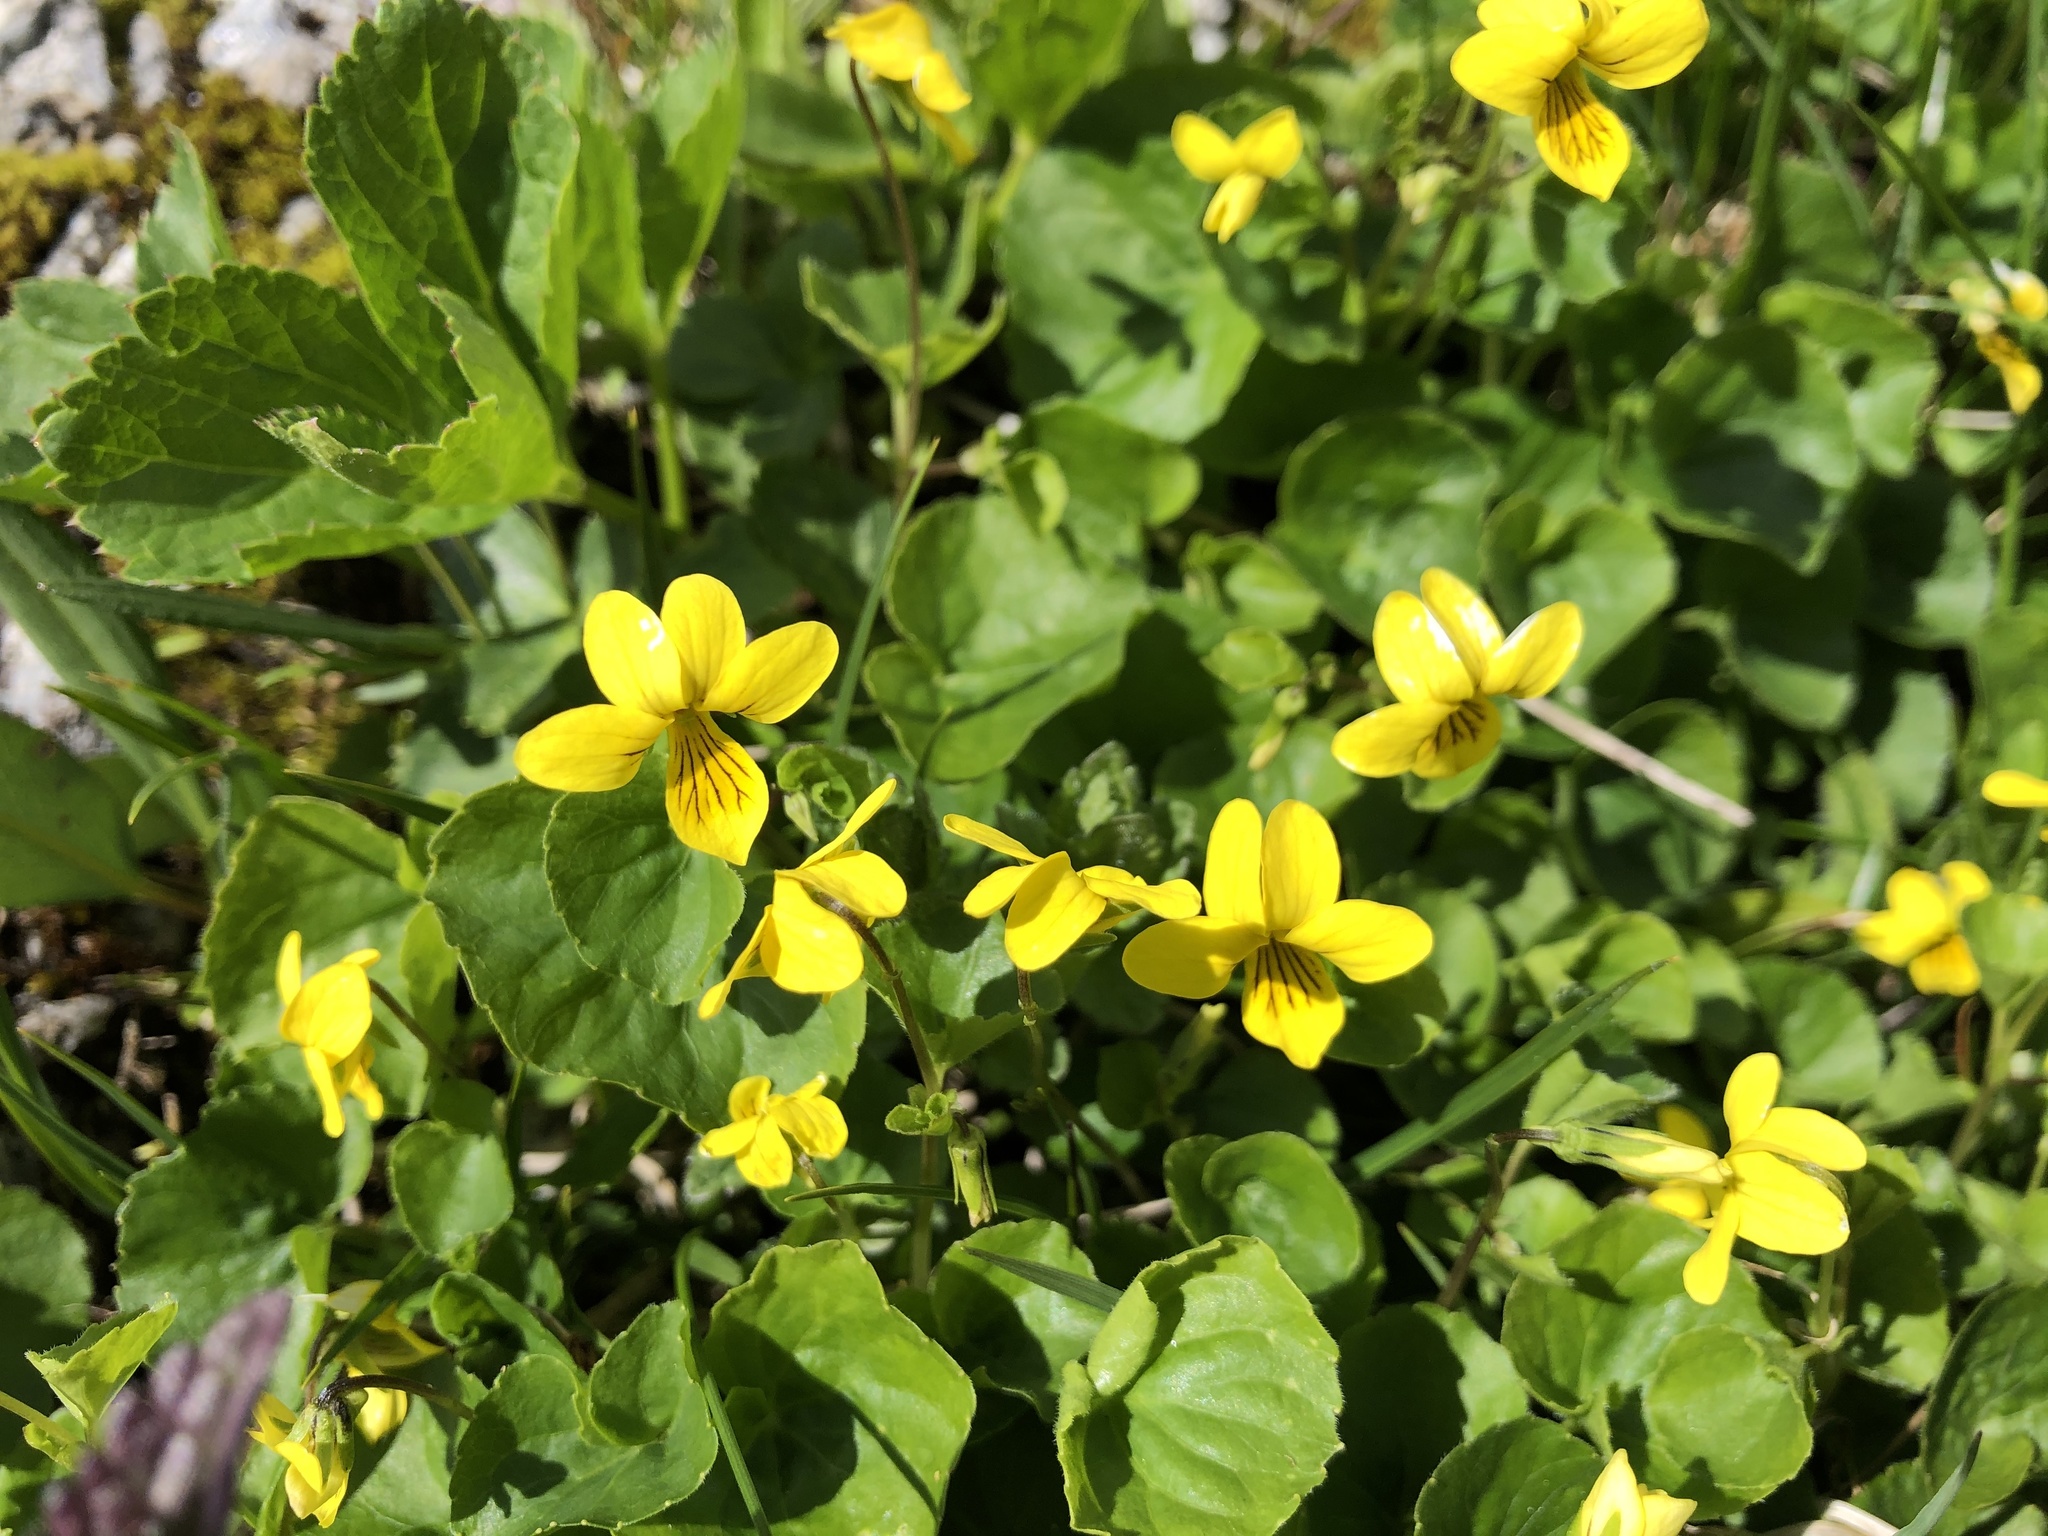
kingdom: Plantae
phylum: Tracheophyta
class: Magnoliopsida
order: Malpighiales
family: Violaceae
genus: Viola
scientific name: Viola biflora
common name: Alpine yellow violet
